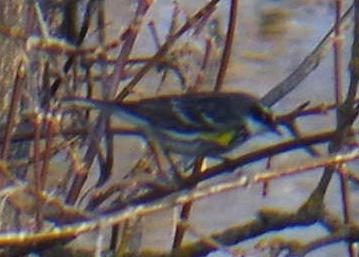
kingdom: Animalia
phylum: Chordata
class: Aves
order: Passeriformes
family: Parulidae
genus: Setophaga
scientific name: Setophaga coronata
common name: Myrtle warbler
